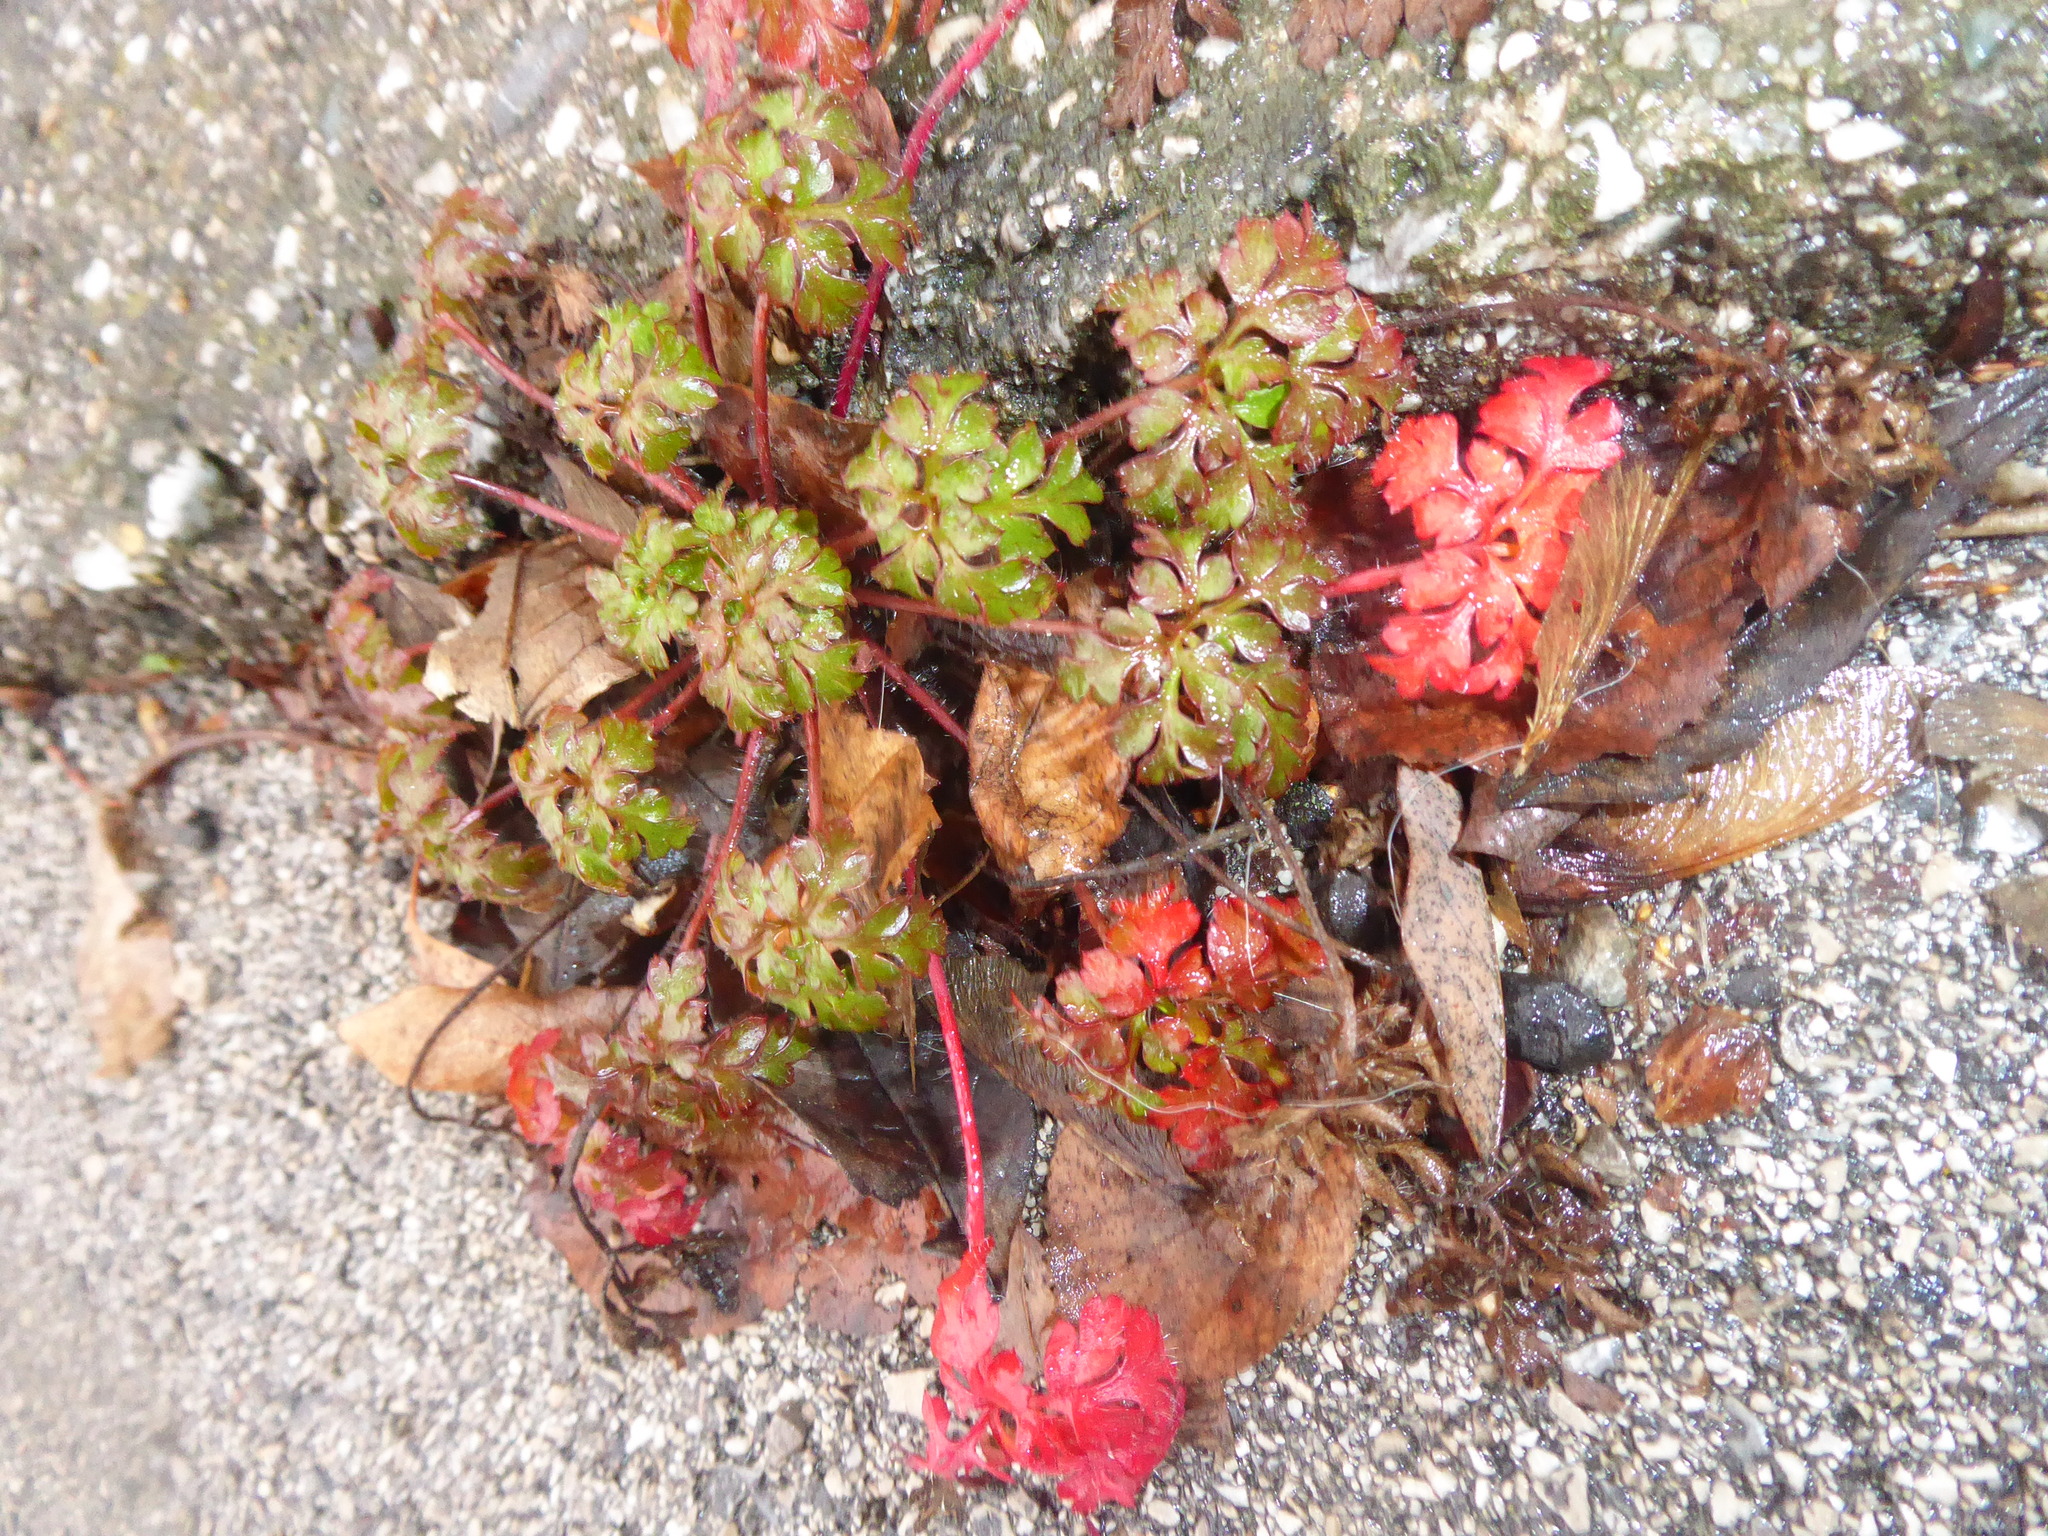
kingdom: Plantae
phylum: Tracheophyta
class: Magnoliopsida
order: Geraniales
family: Geraniaceae
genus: Geranium
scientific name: Geranium robertianum
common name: Herb-robert
